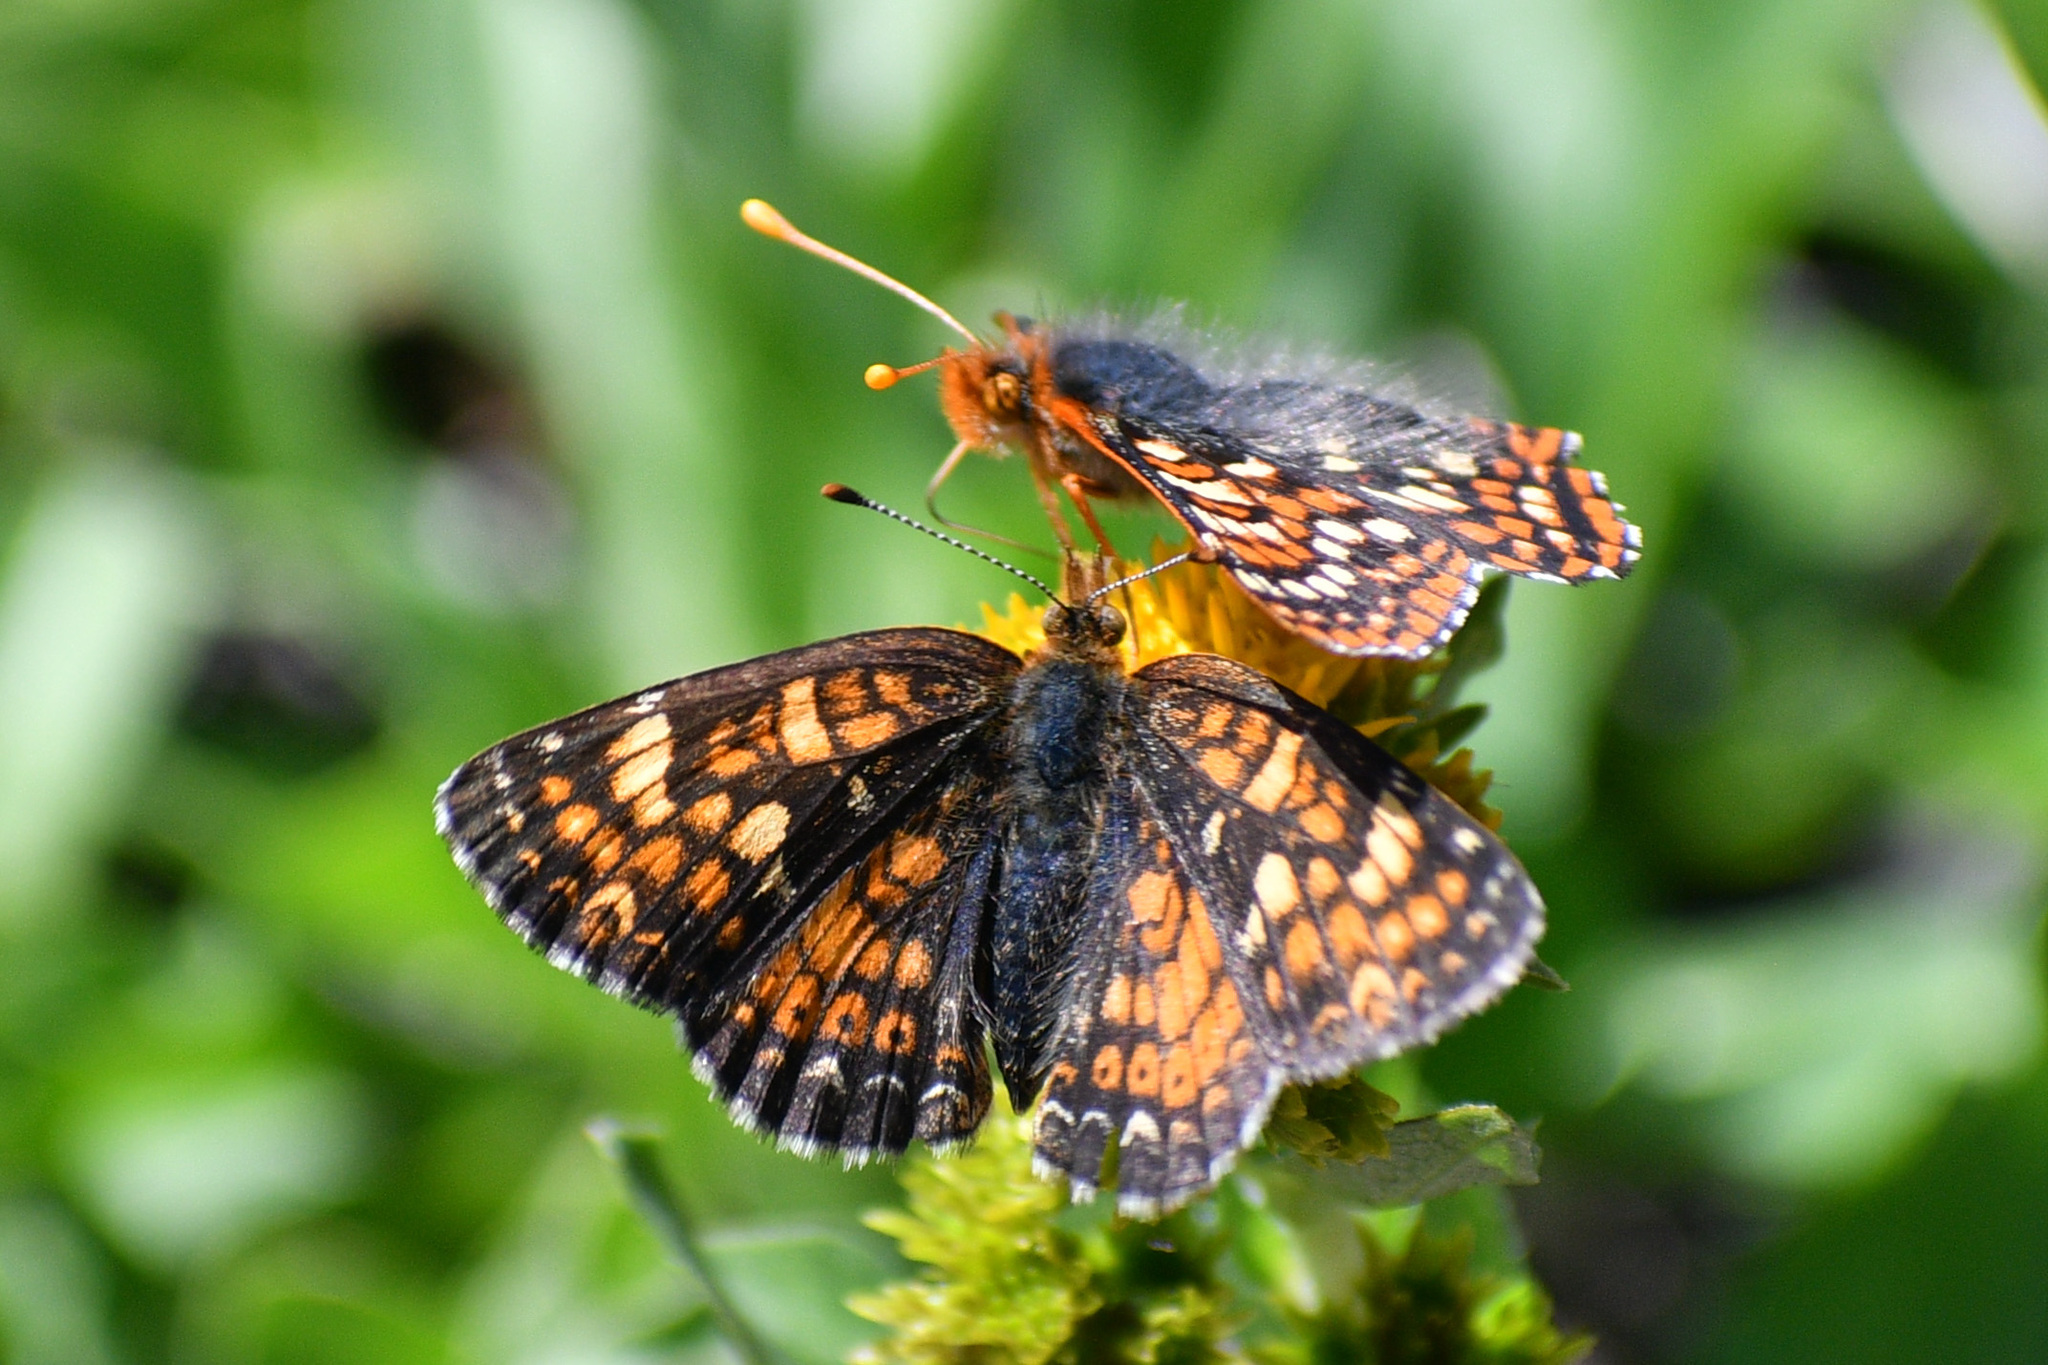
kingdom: Animalia
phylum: Arthropoda
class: Insecta
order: Lepidoptera
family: Nymphalidae
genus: Phyciodes
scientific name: Phyciodes tharos
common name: Pearl crescent
